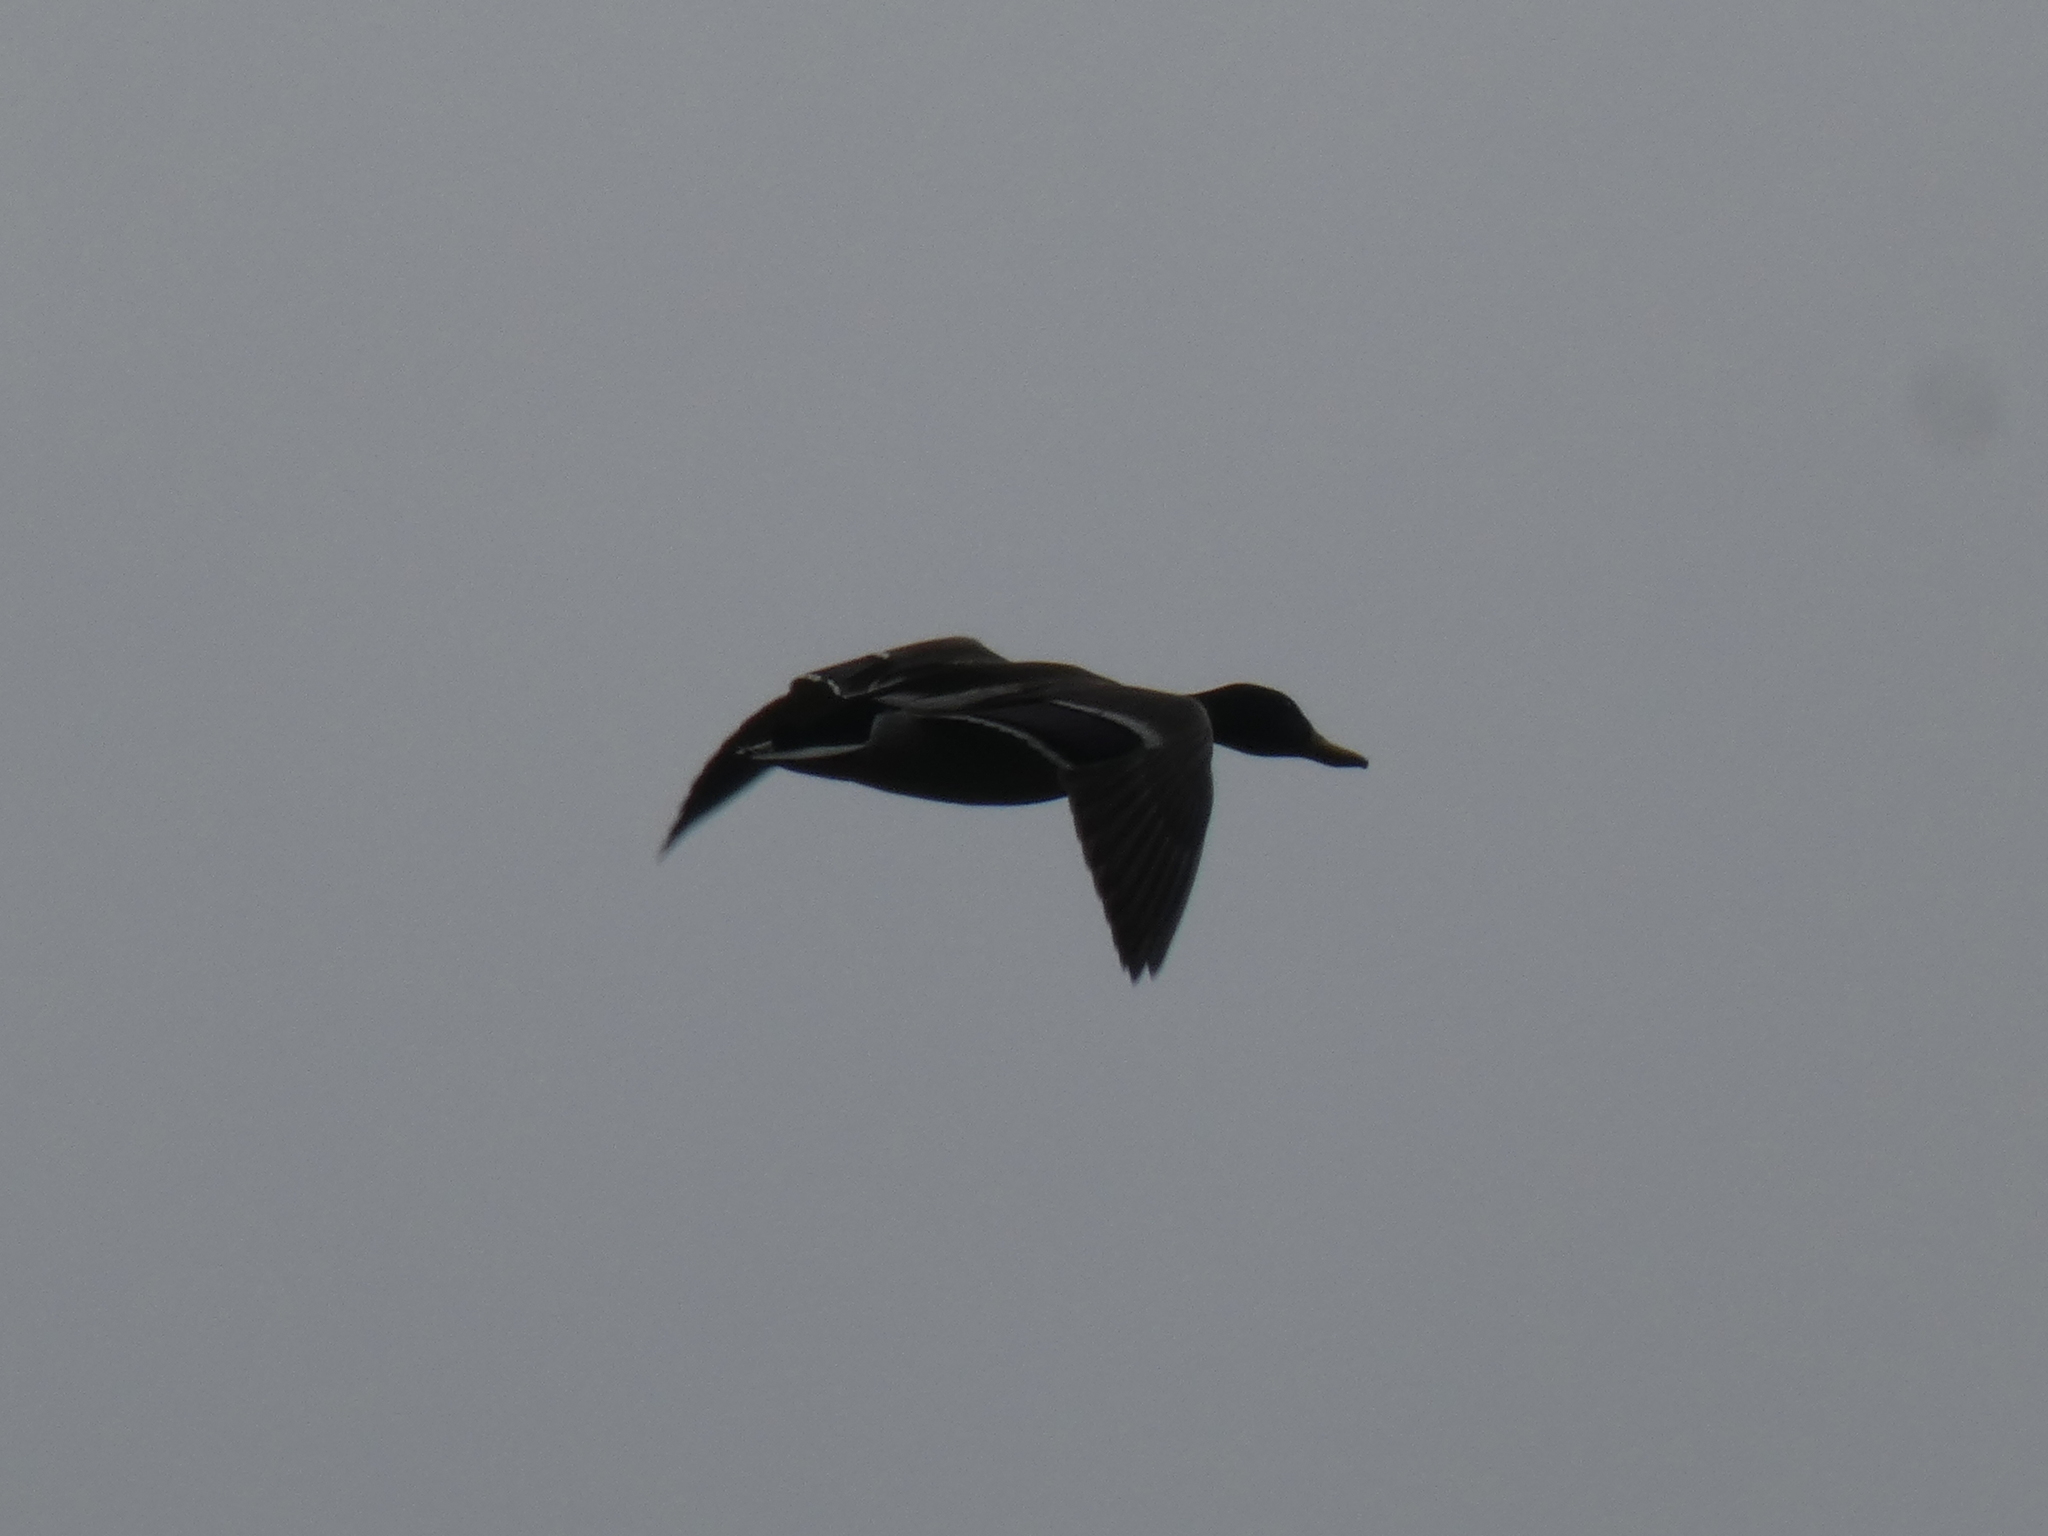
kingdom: Animalia
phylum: Chordata
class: Aves
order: Anseriformes
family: Anatidae
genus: Anas
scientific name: Anas platyrhynchos
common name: Mallard
